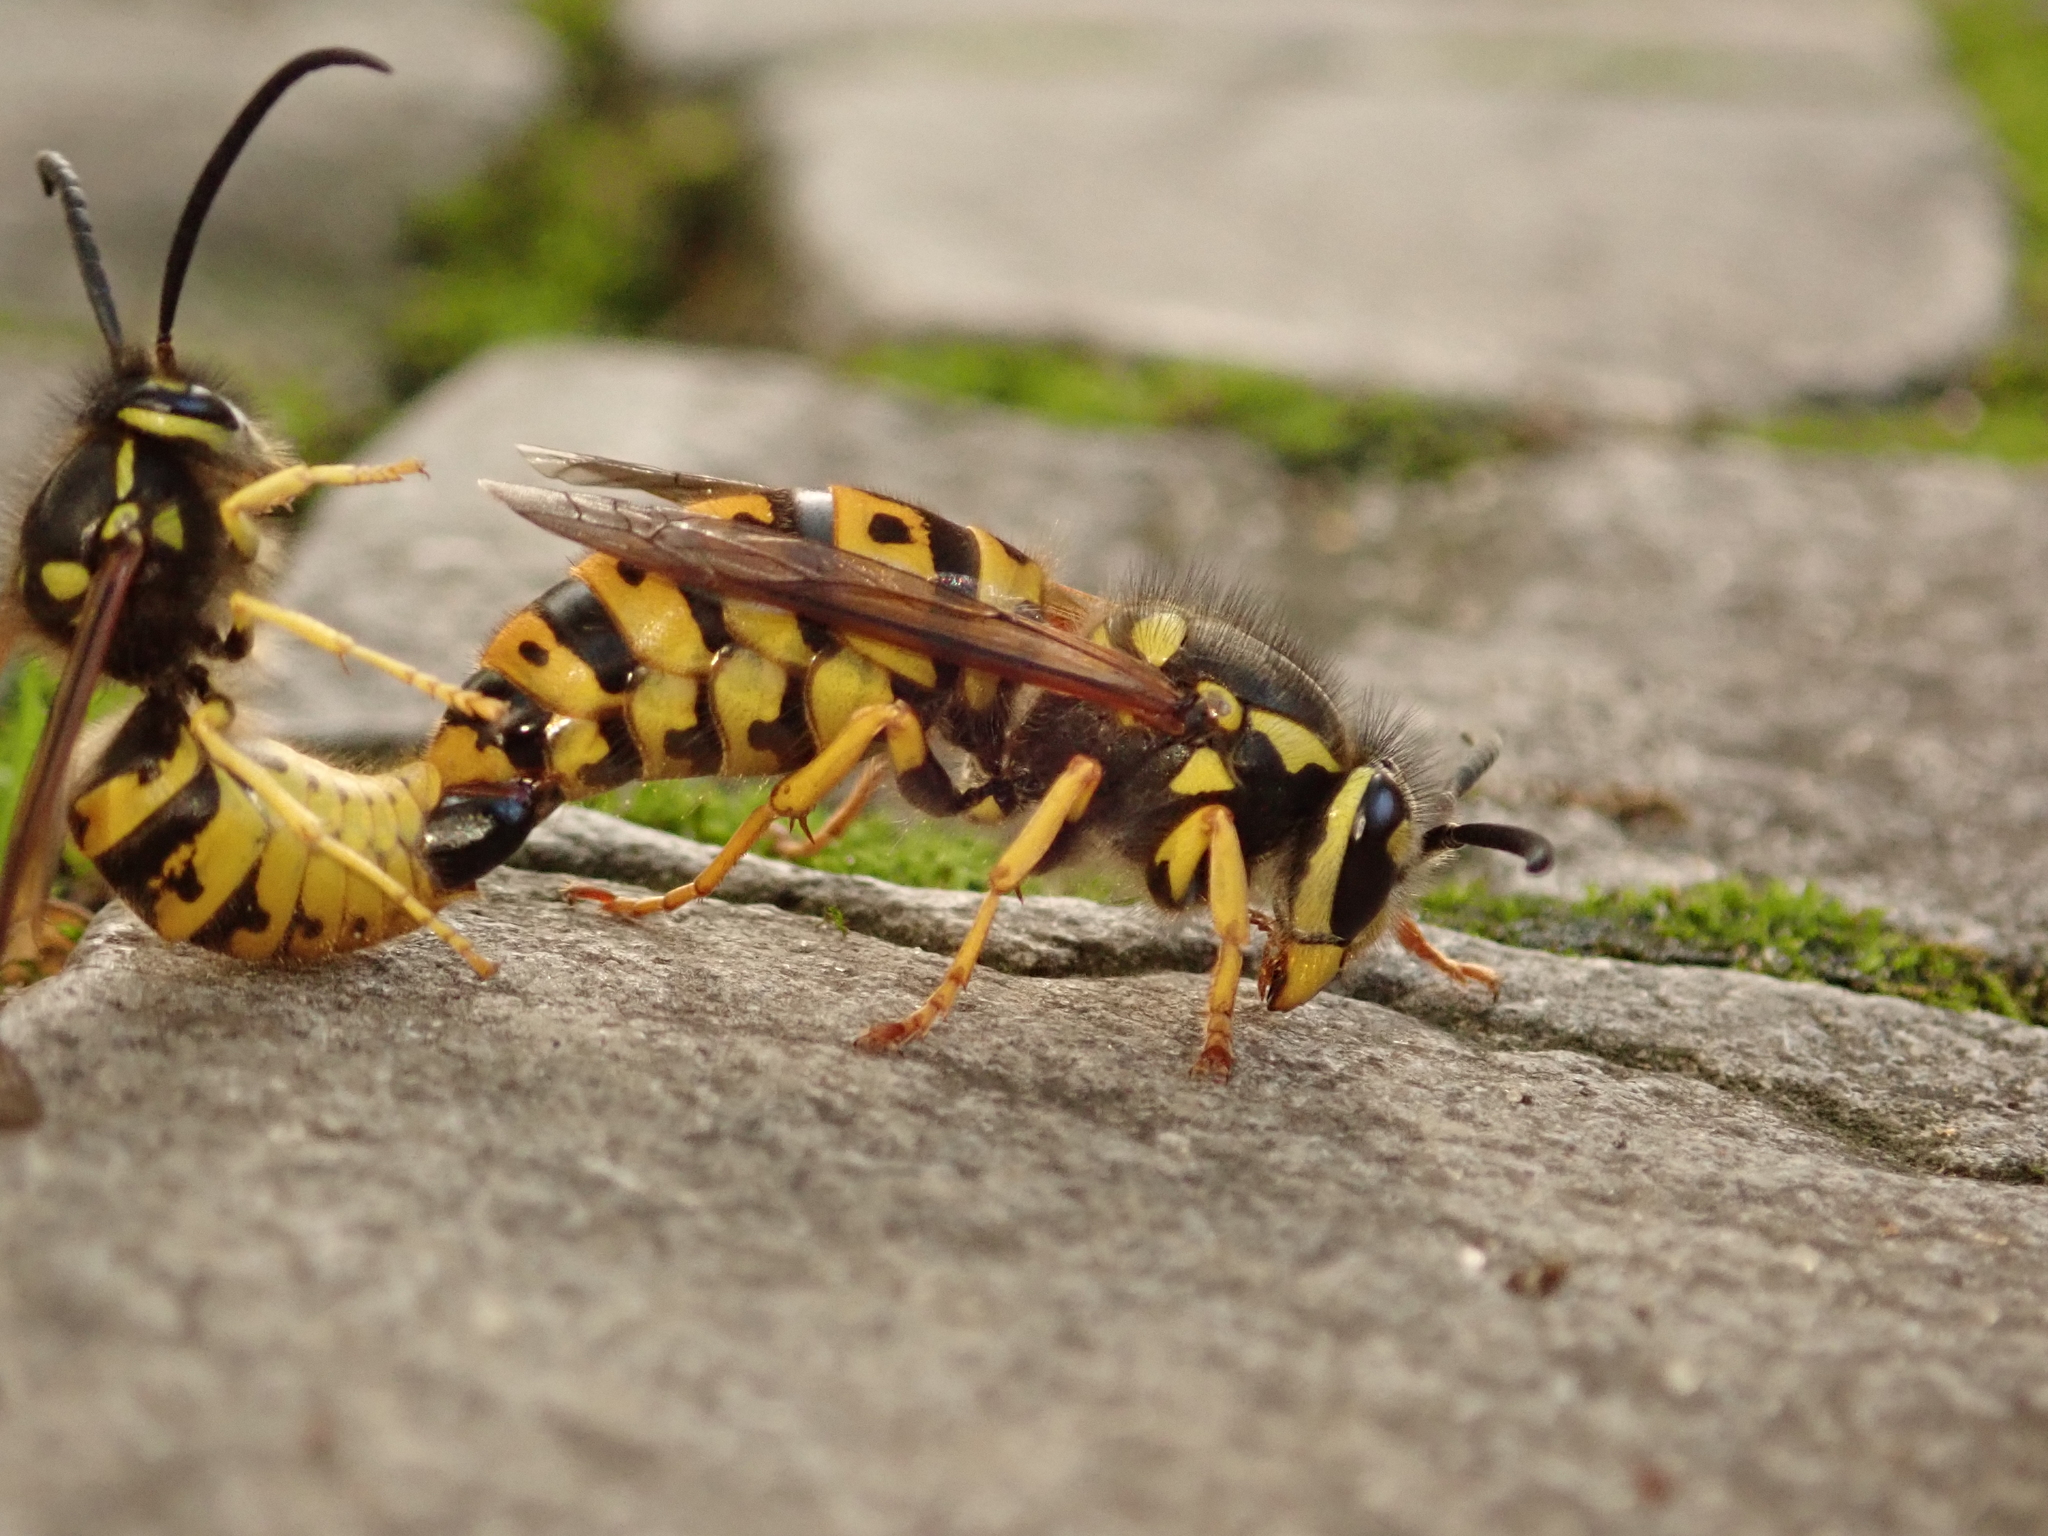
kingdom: Animalia
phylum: Arthropoda
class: Insecta
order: Hymenoptera
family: Vespidae
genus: Vespula
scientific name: Vespula germanica
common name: German wasp
